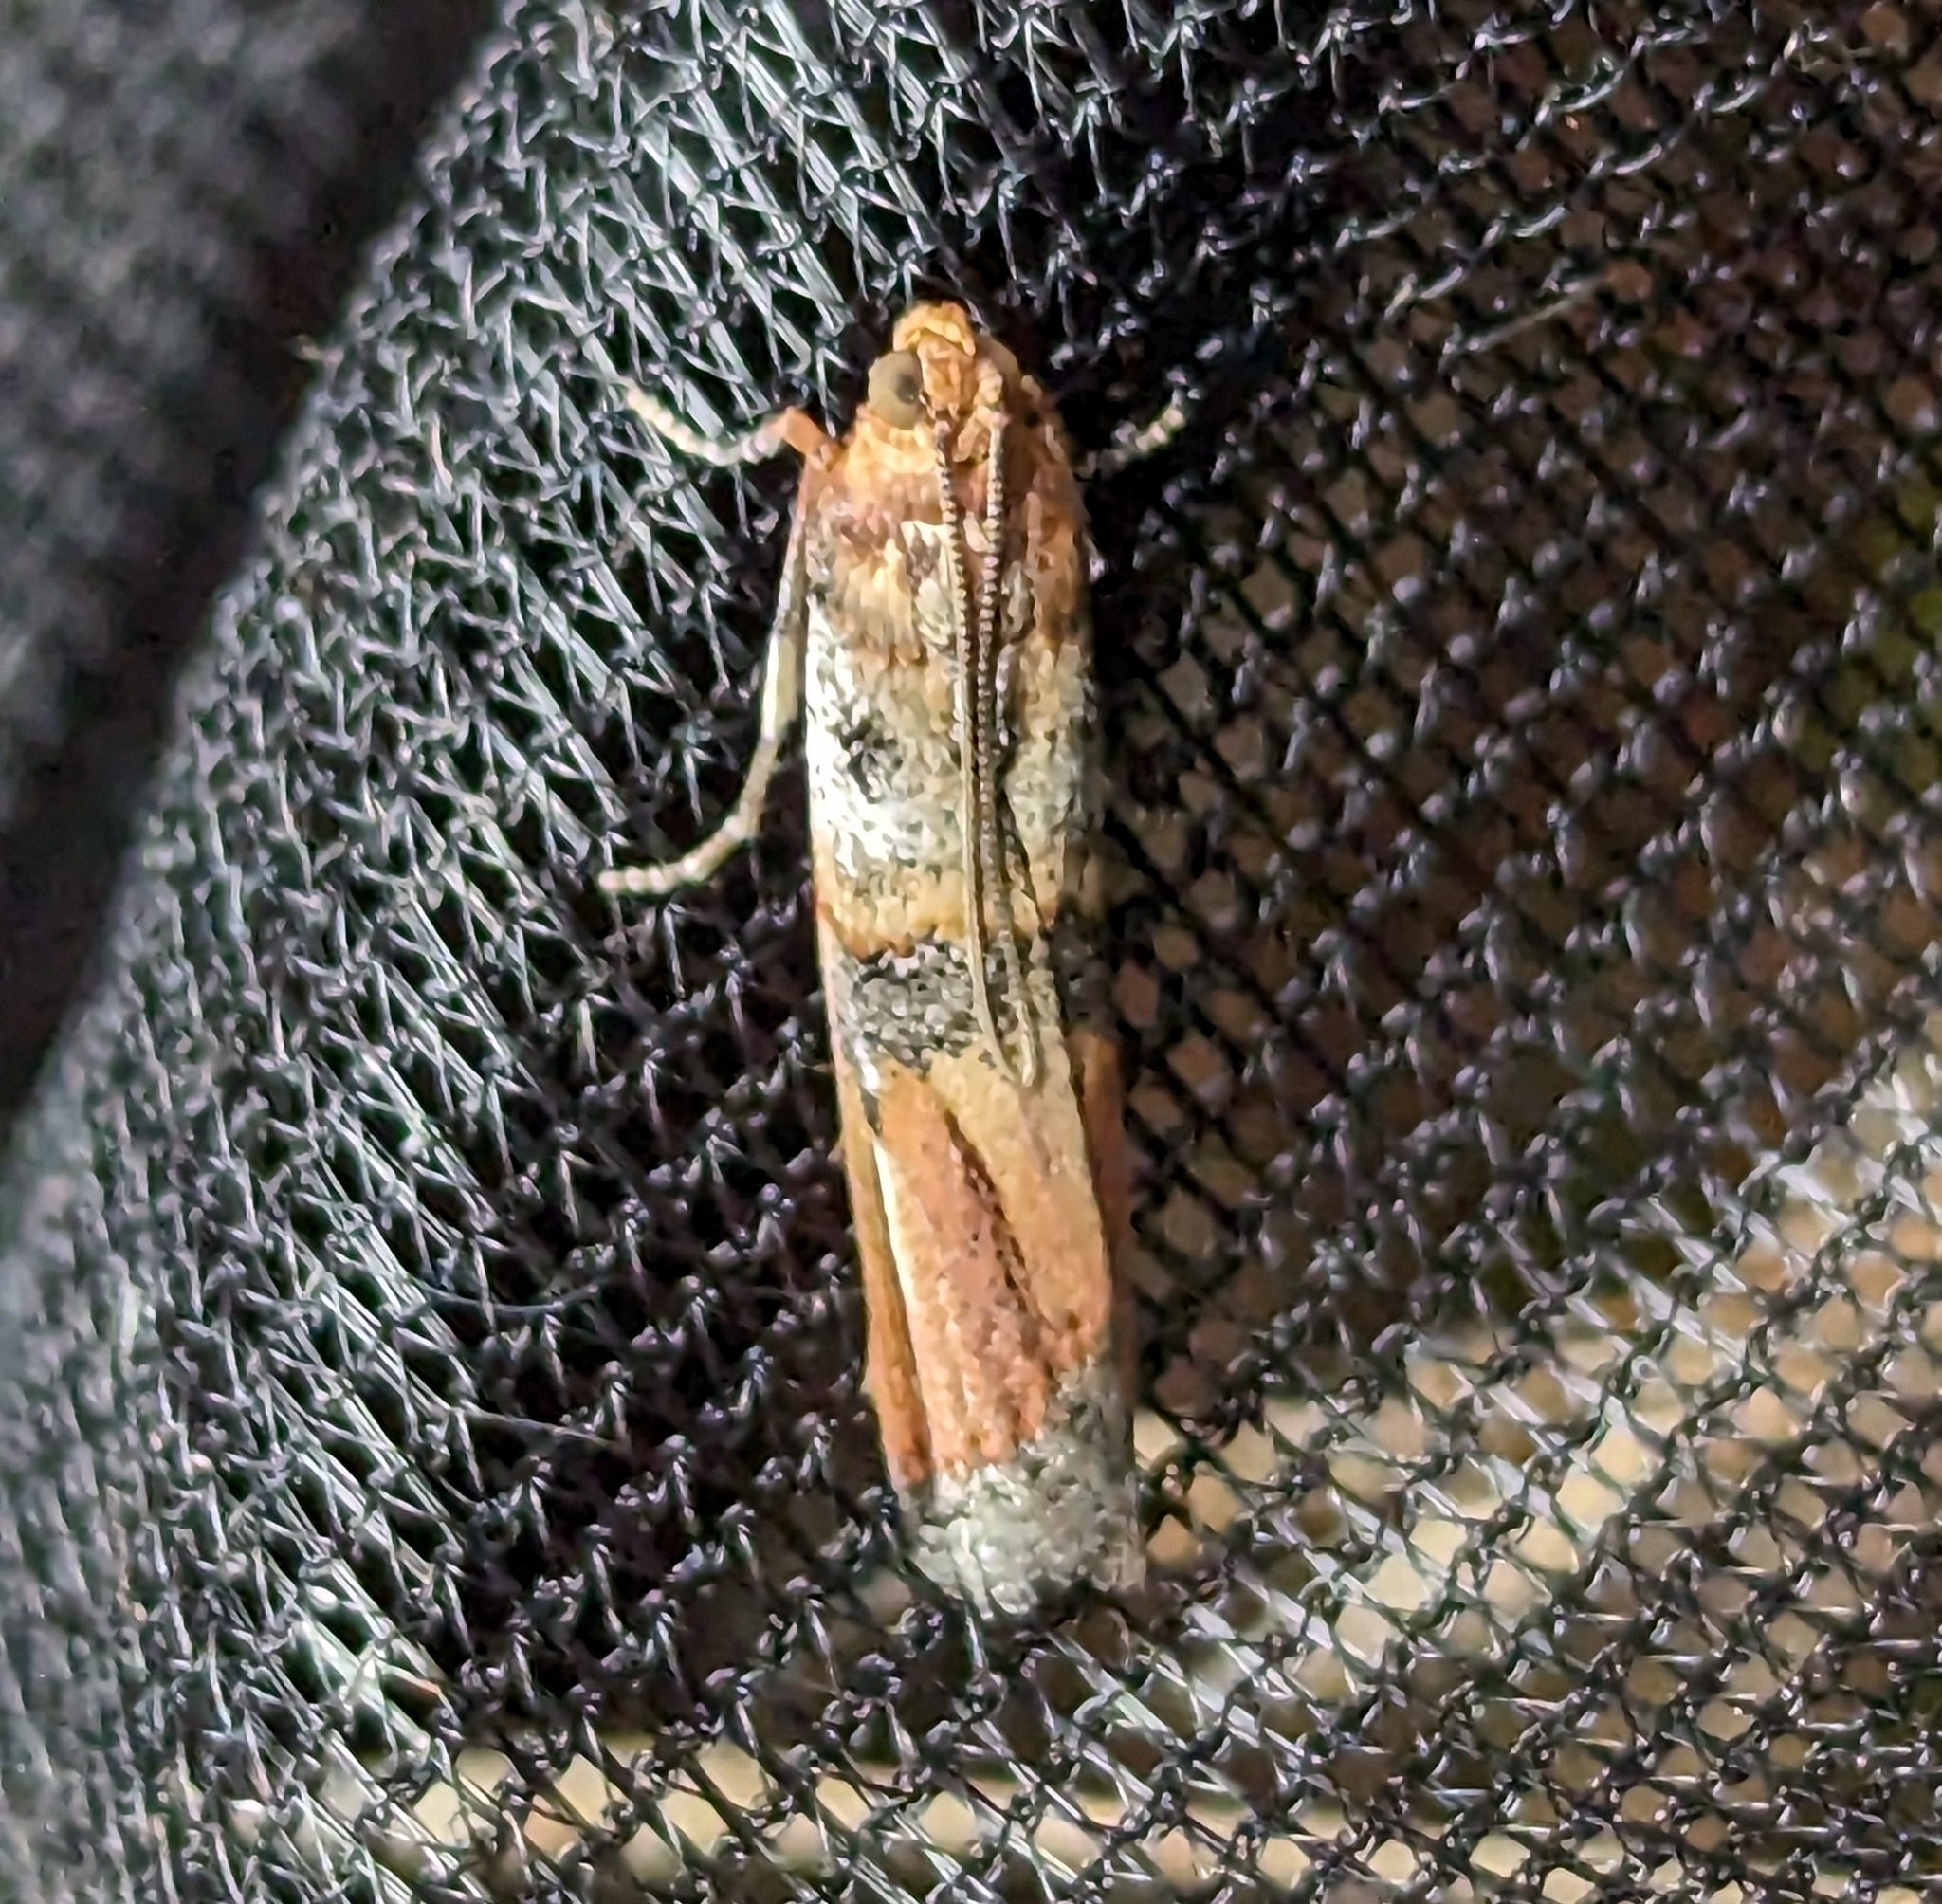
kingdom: Animalia
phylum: Arthropoda
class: Insecta
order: Lepidoptera
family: Pyralidae
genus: Dasypyga
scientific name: Dasypyga alternosquamella
